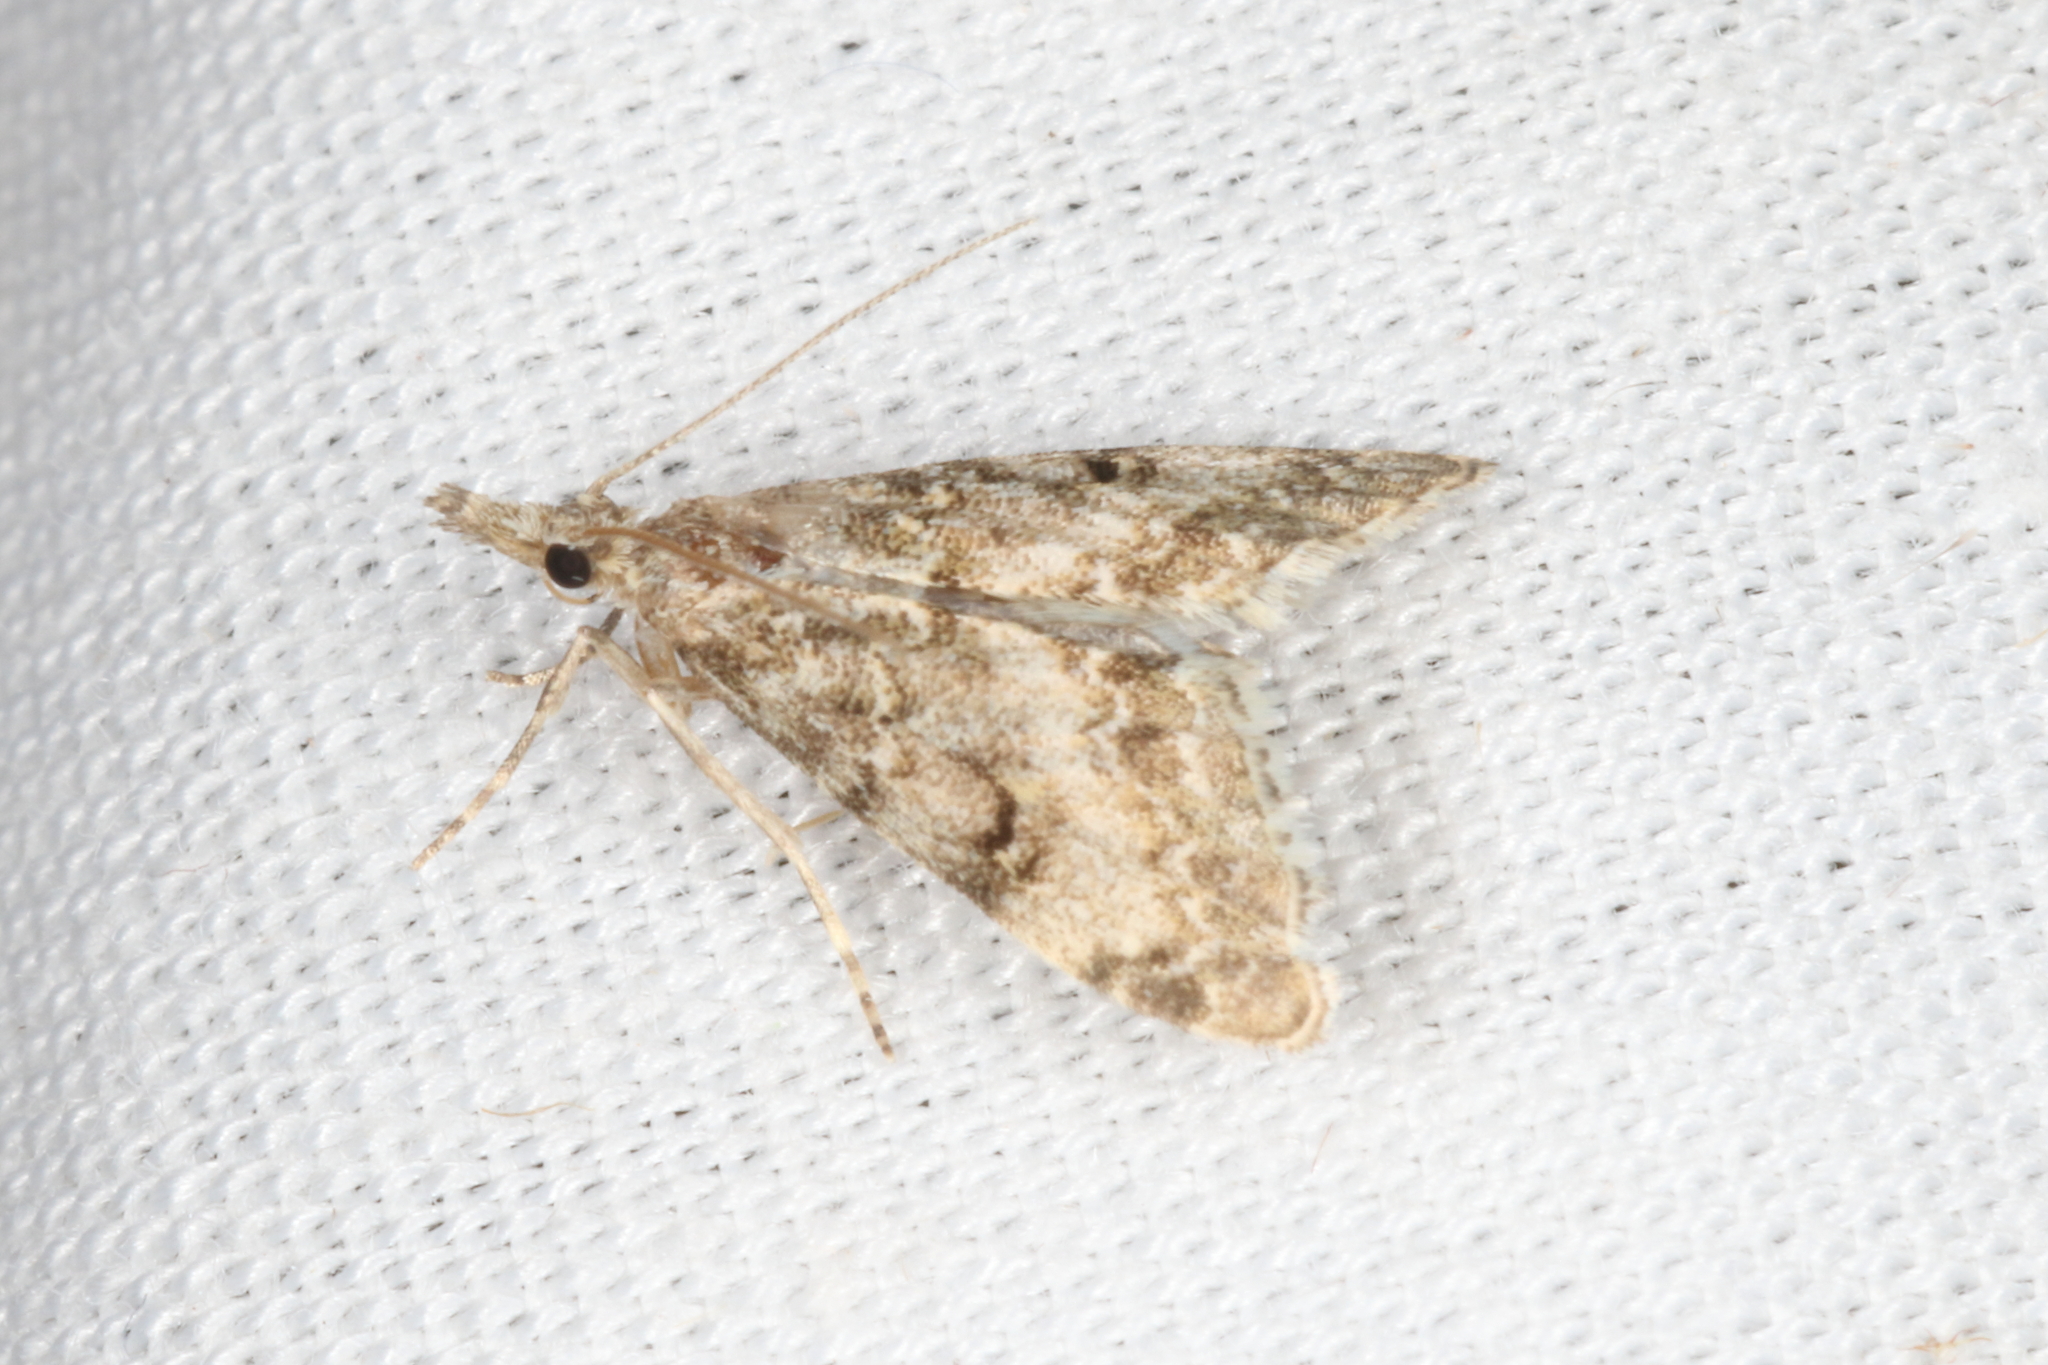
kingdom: Animalia
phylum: Arthropoda
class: Insecta
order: Lepidoptera
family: Crambidae
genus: Glaucocharis
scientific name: Glaucocharis elaina
